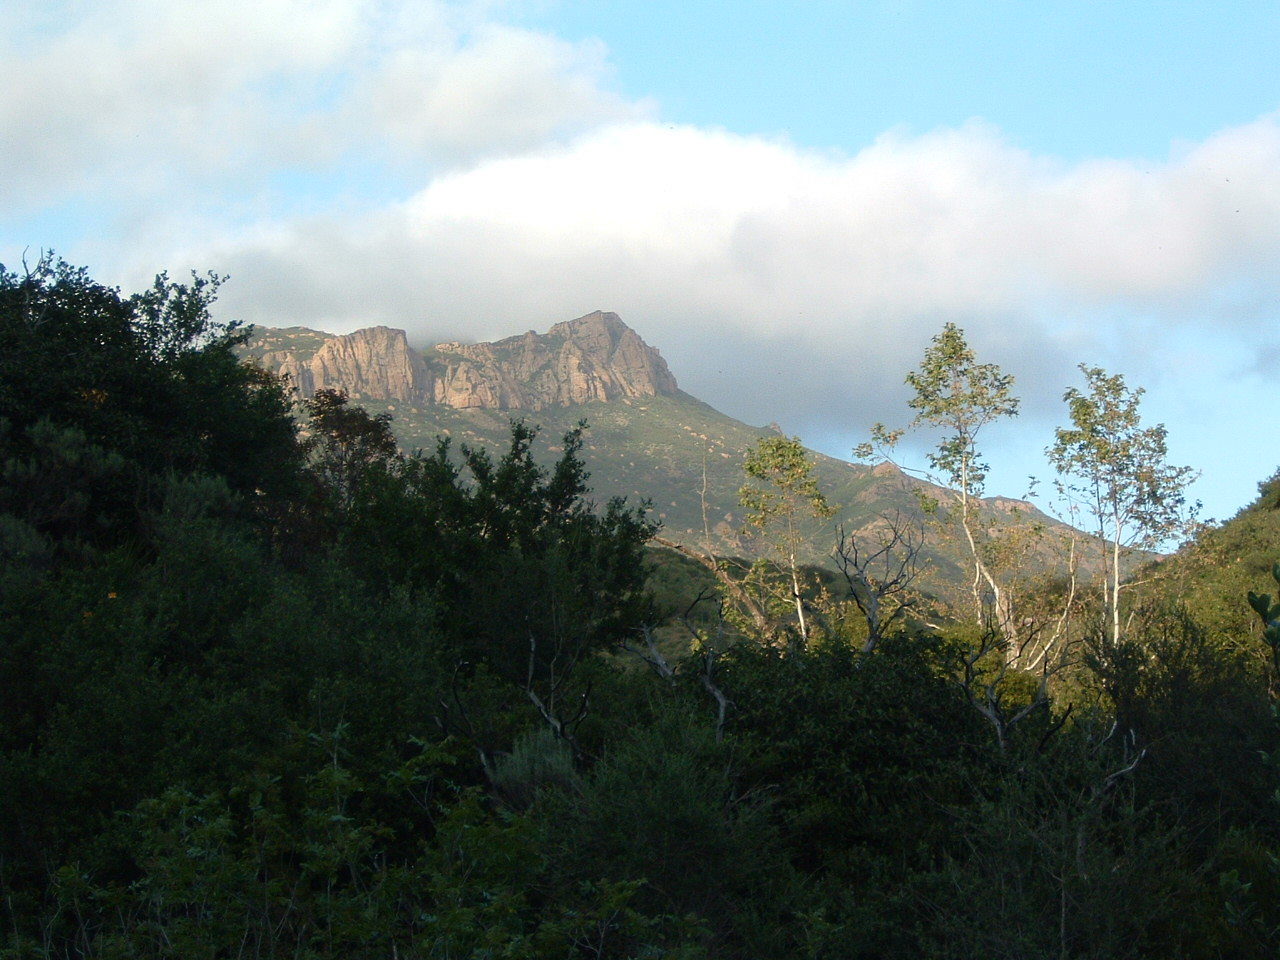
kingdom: Plantae
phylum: Tracheophyta
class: Magnoliopsida
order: Proteales
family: Platanaceae
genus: Platanus
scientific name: Platanus racemosa
